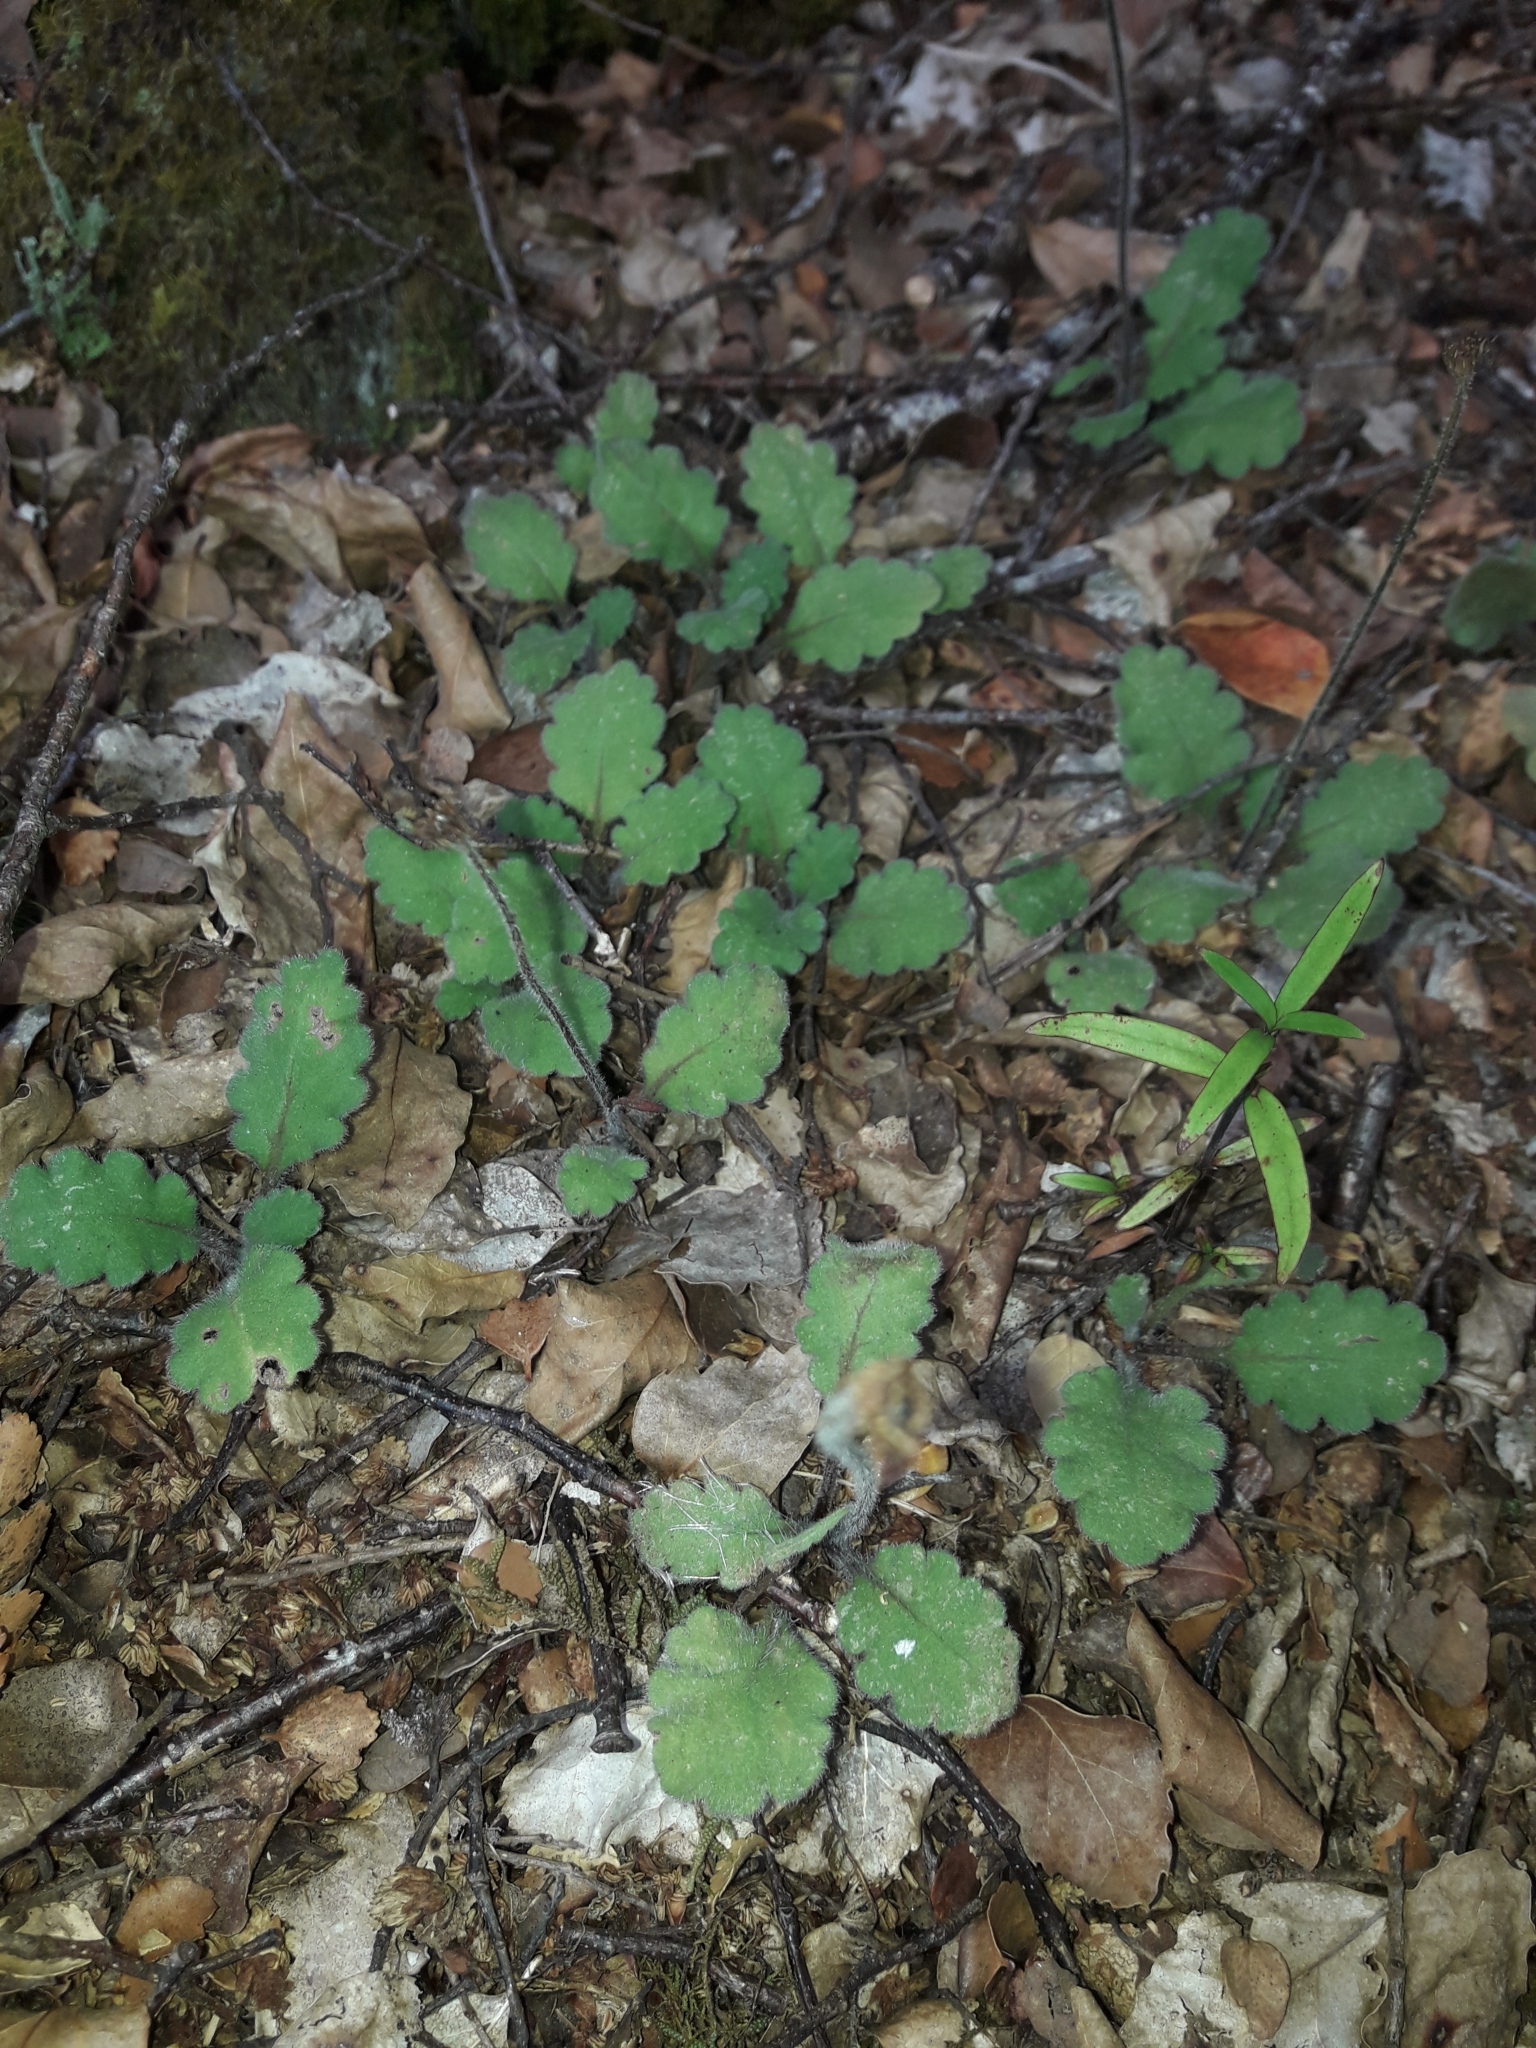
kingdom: Plantae
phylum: Tracheophyta
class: Magnoliopsida
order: Asterales
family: Asteraceae
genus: Lagenophora
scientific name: Lagenophora pinnatifida
